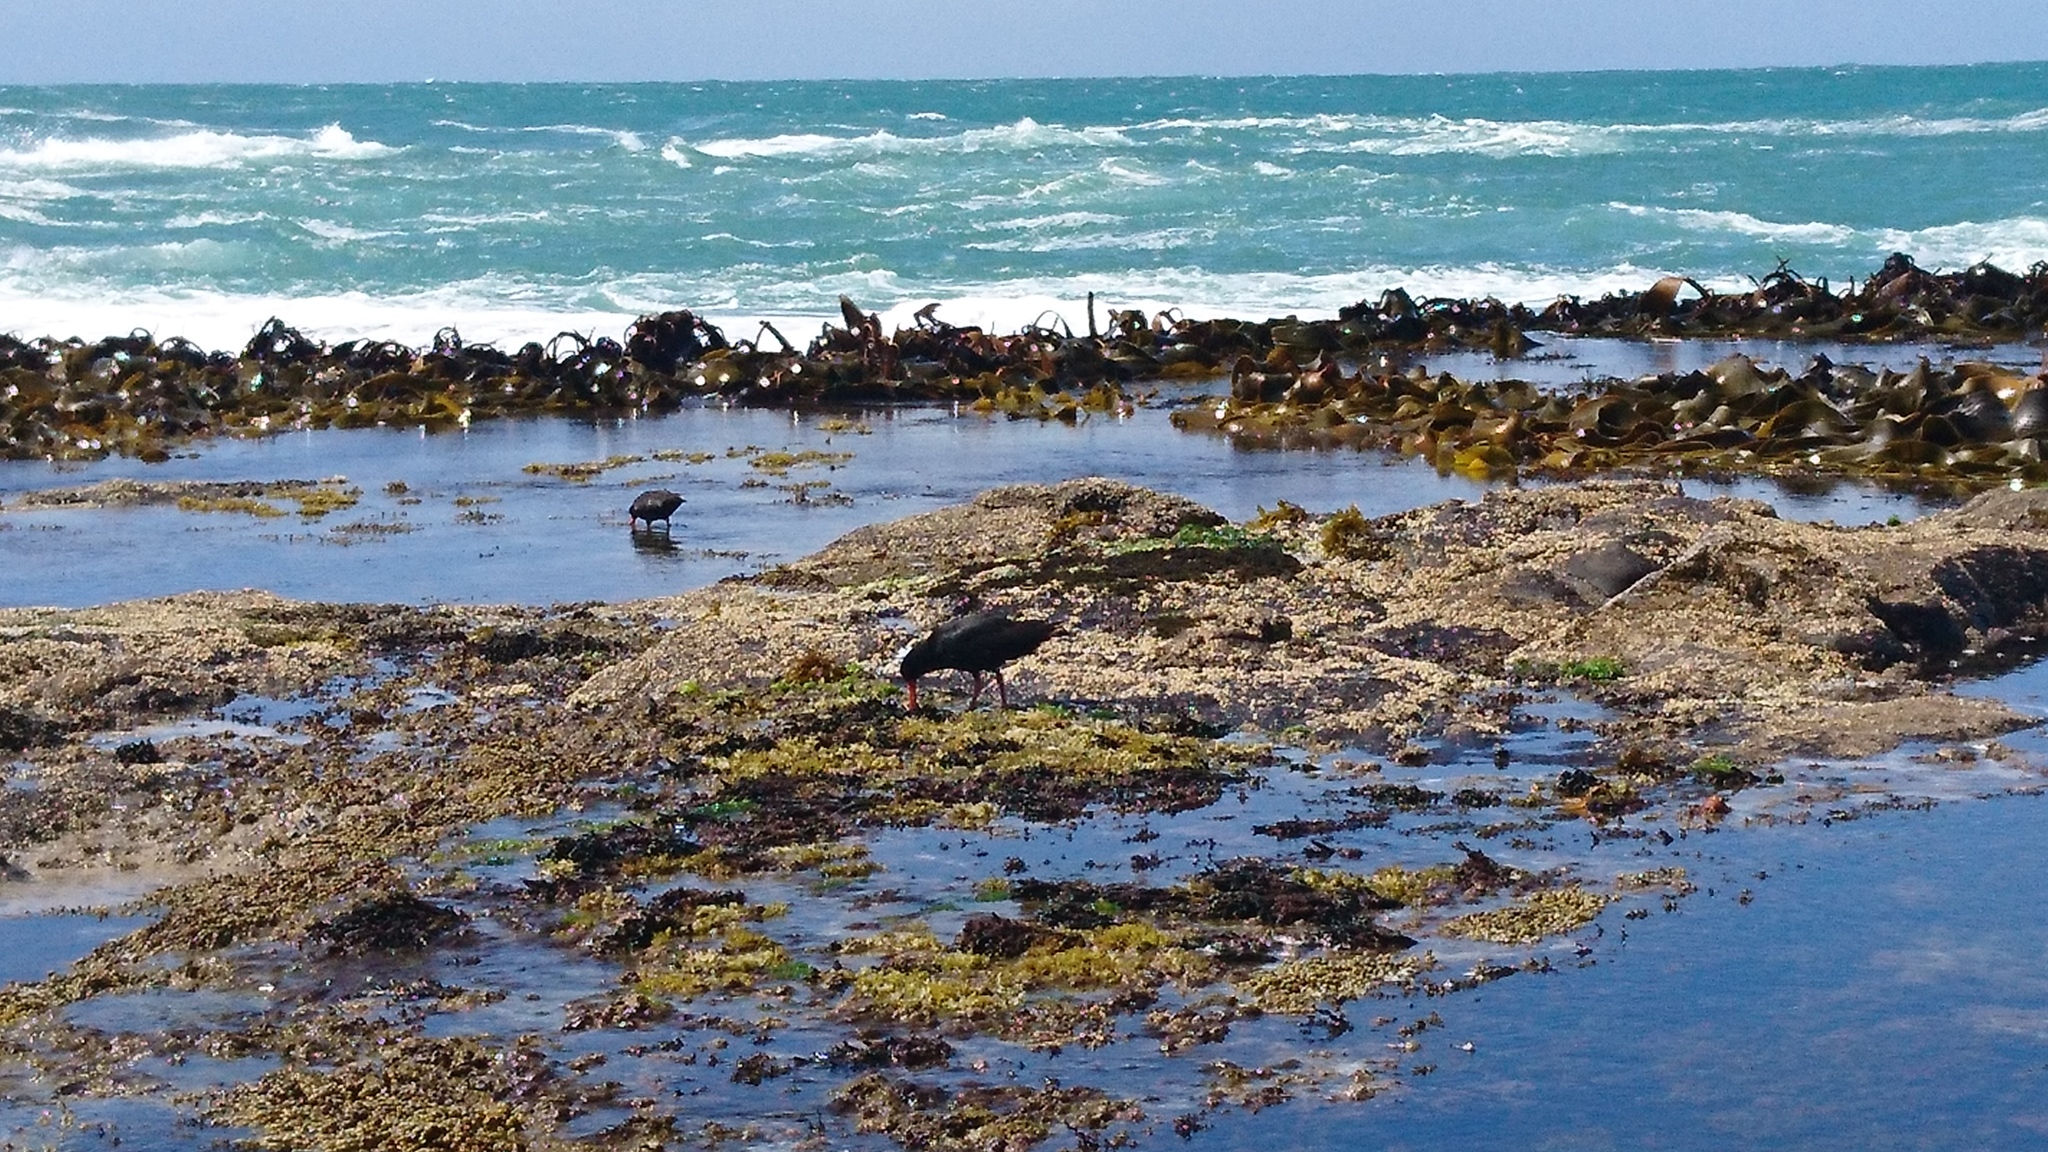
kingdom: Animalia
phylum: Chordata
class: Aves
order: Charadriiformes
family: Haematopodidae
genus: Haematopus
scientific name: Haematopus unicolor
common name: Variable oystercatcher
